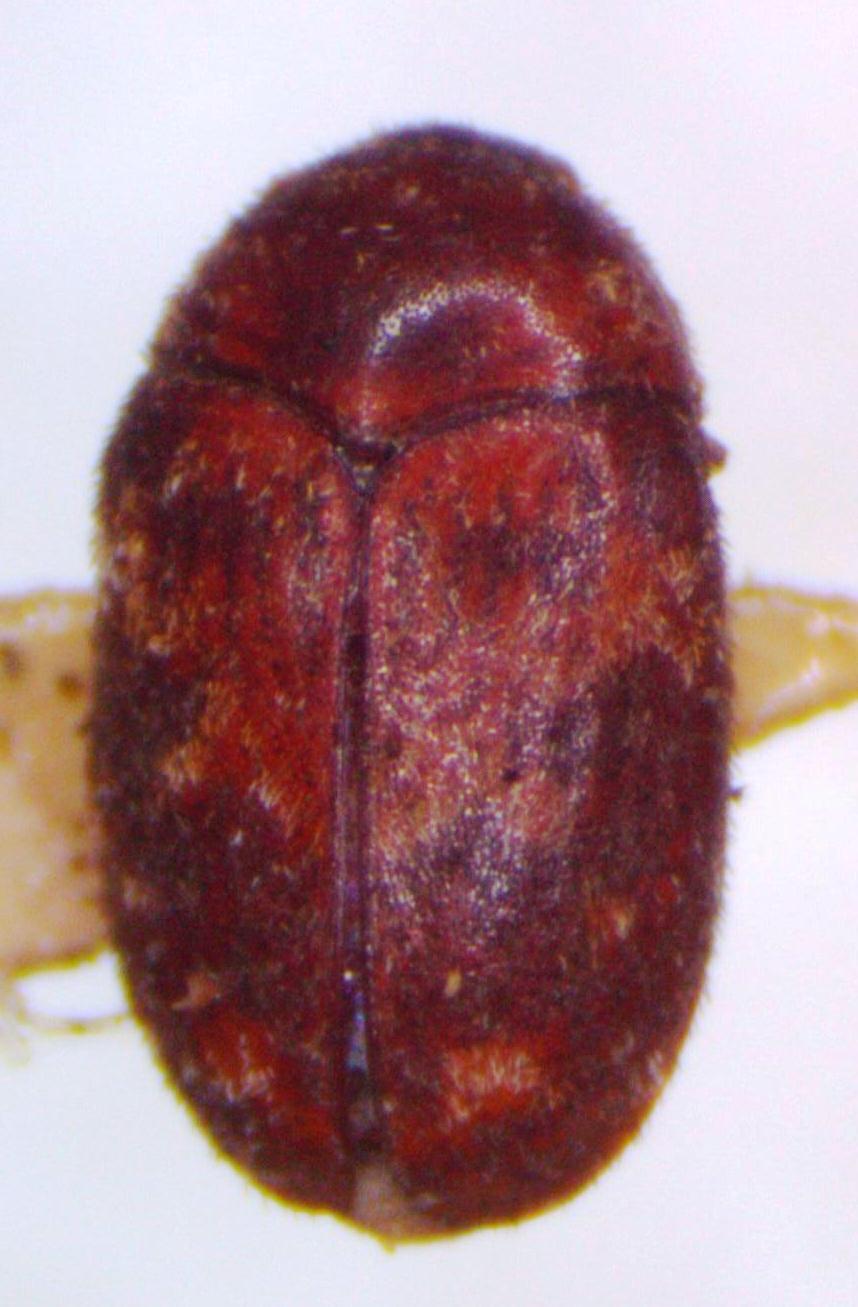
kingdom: Animalia
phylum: Arthropoda
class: Insecta
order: Coleoptera
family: Dermestidae
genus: Trogoderma
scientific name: Trogoderma
